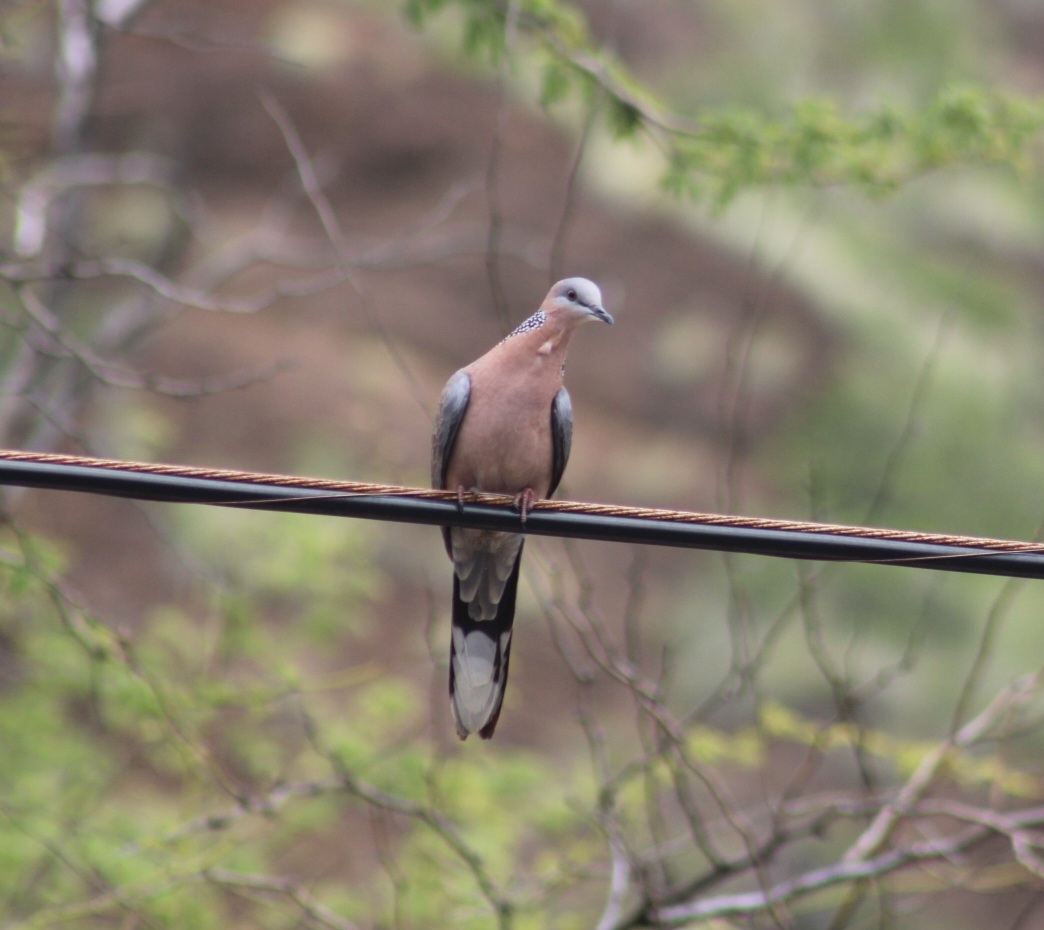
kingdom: Animalia
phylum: Chordata
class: Aves
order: Columbiformes
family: Columbidae
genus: Spilopelia
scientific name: Spilopelia chinensis
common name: Spotted dove
